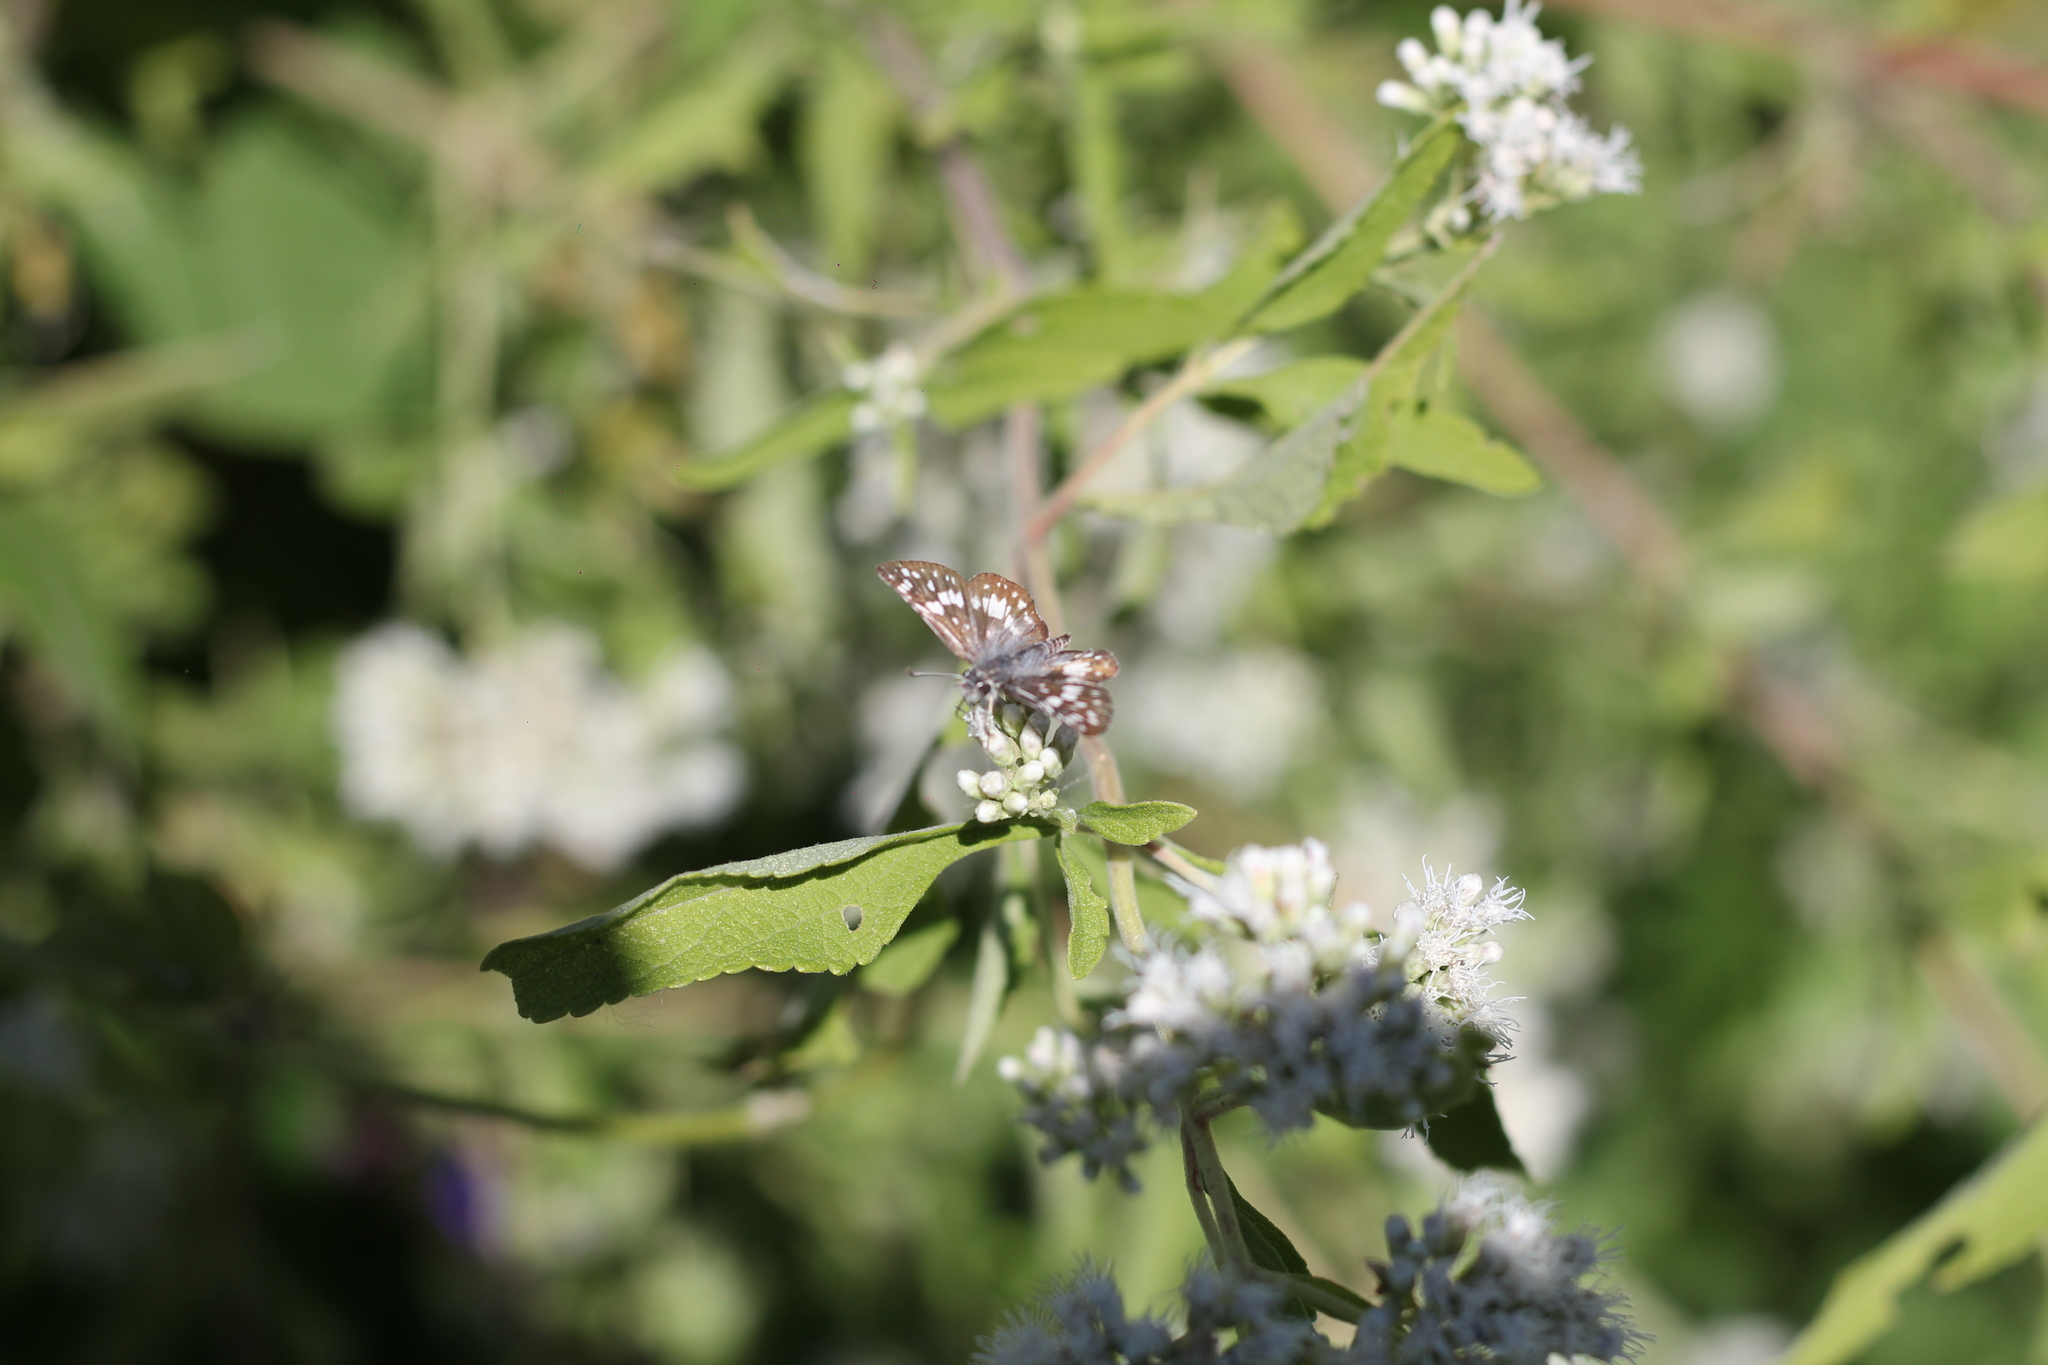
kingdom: Animalia
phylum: Arthropoda
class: Insecta
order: Lepidoptera
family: Hesperiidae
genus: Burnsius
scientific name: Burnsius orcynoides
